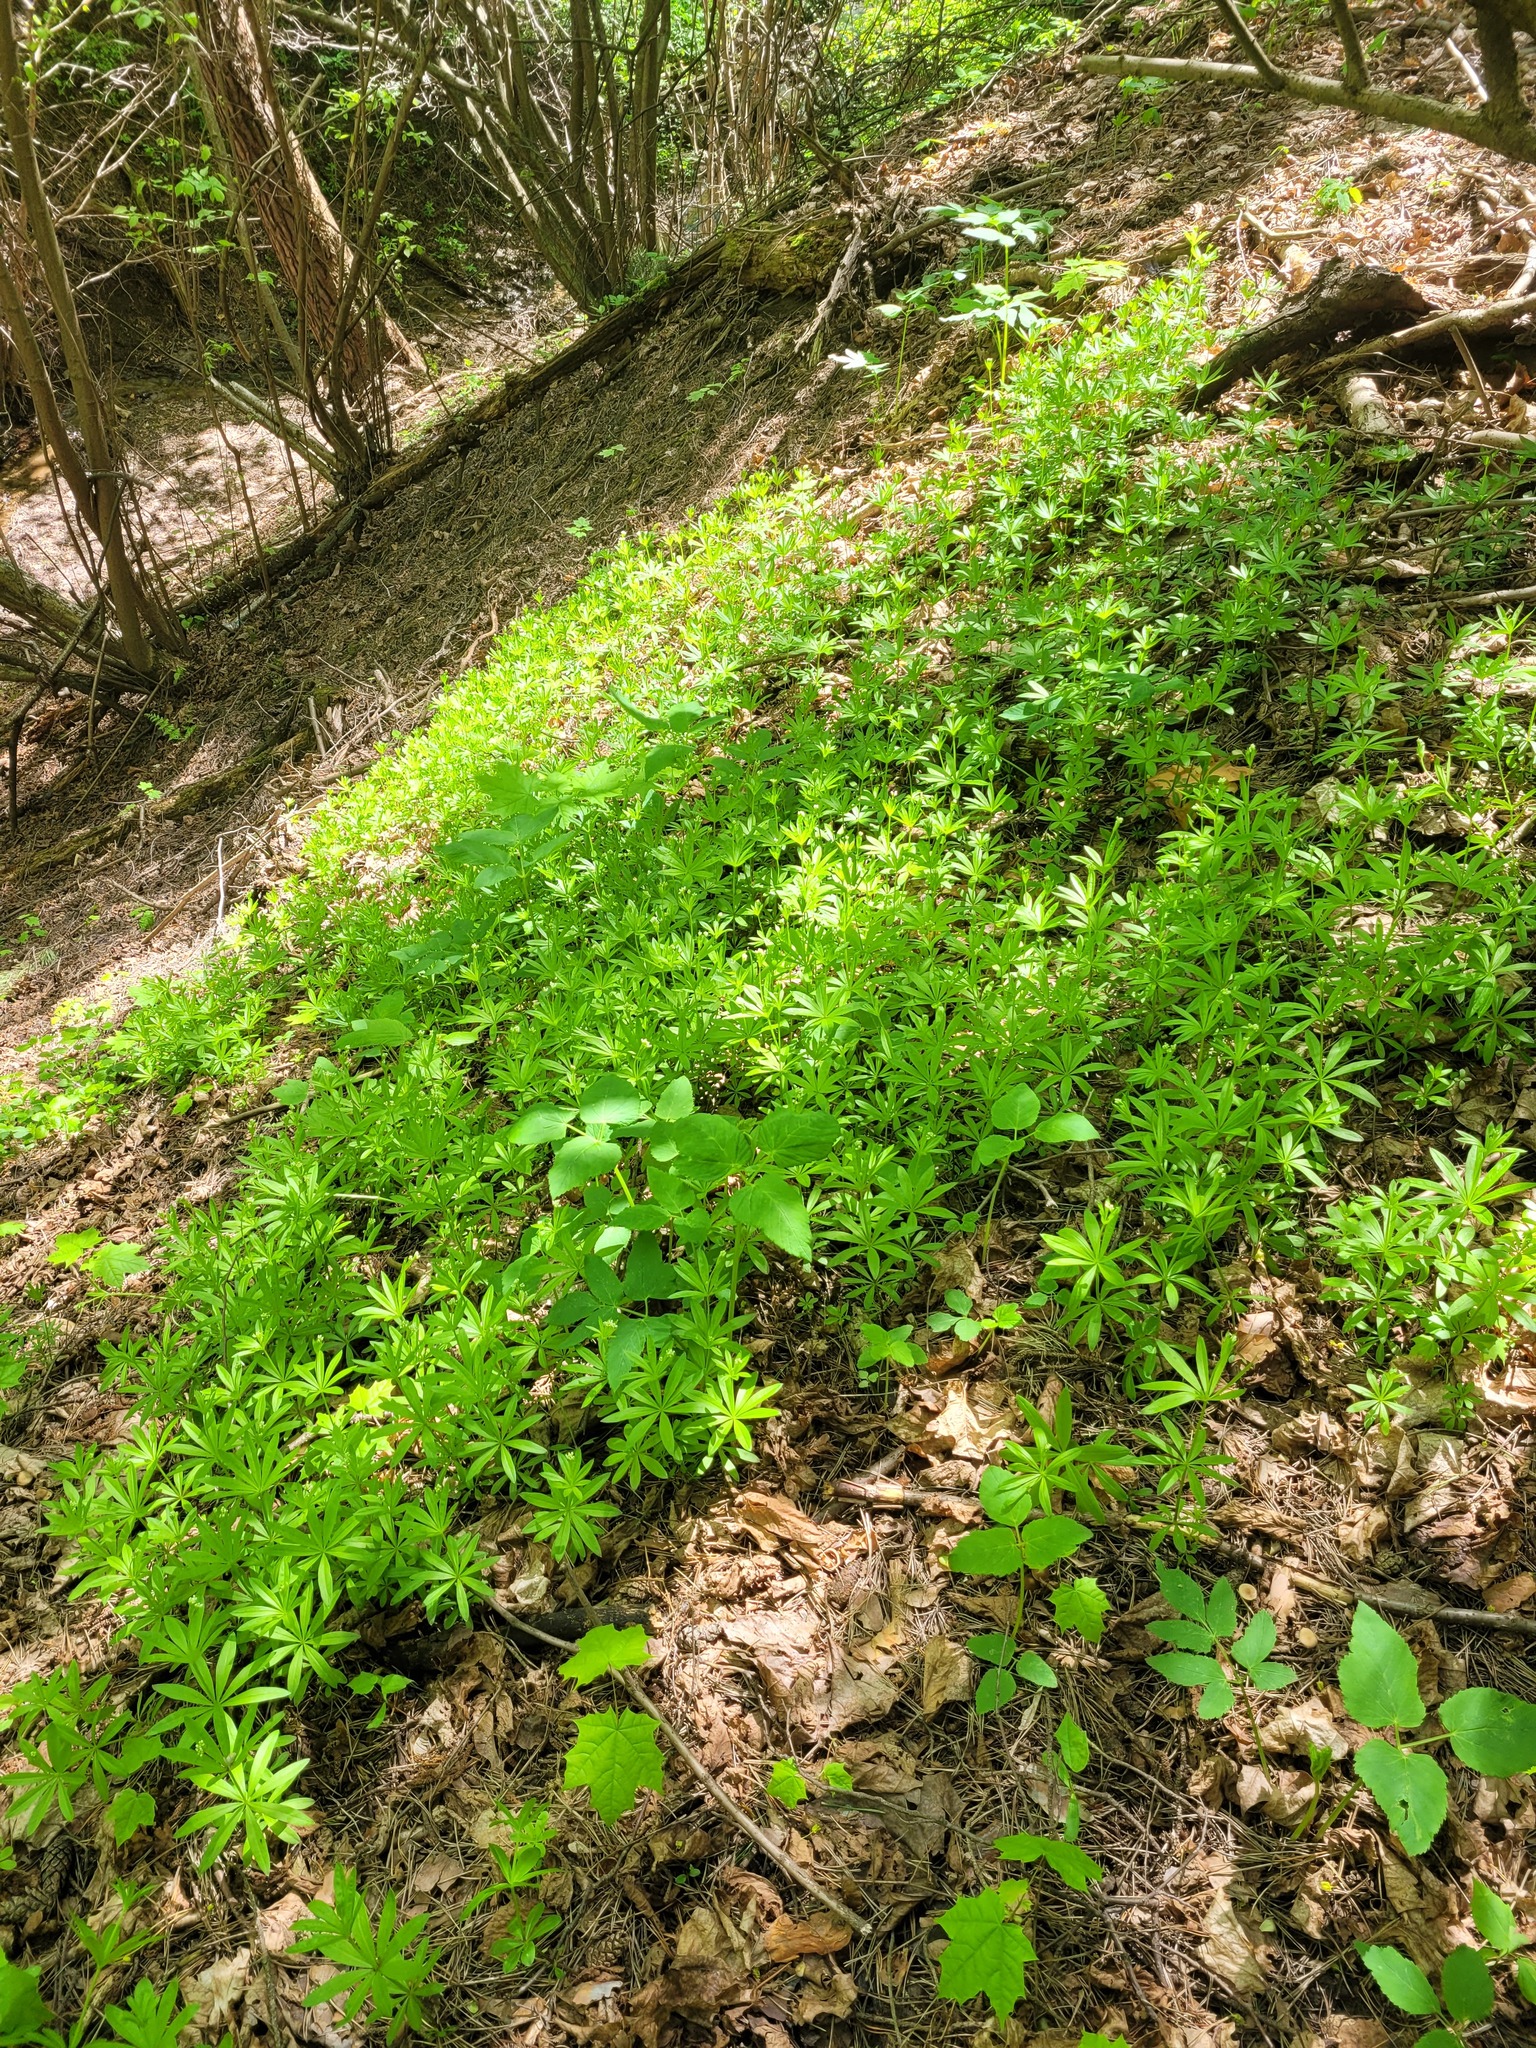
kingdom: Plantae
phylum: Tracheophyta
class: Magnoliopsida
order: Gentianales
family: Rubiaceae
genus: Galium
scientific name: Galium odoratum
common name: Sweet woodruff
